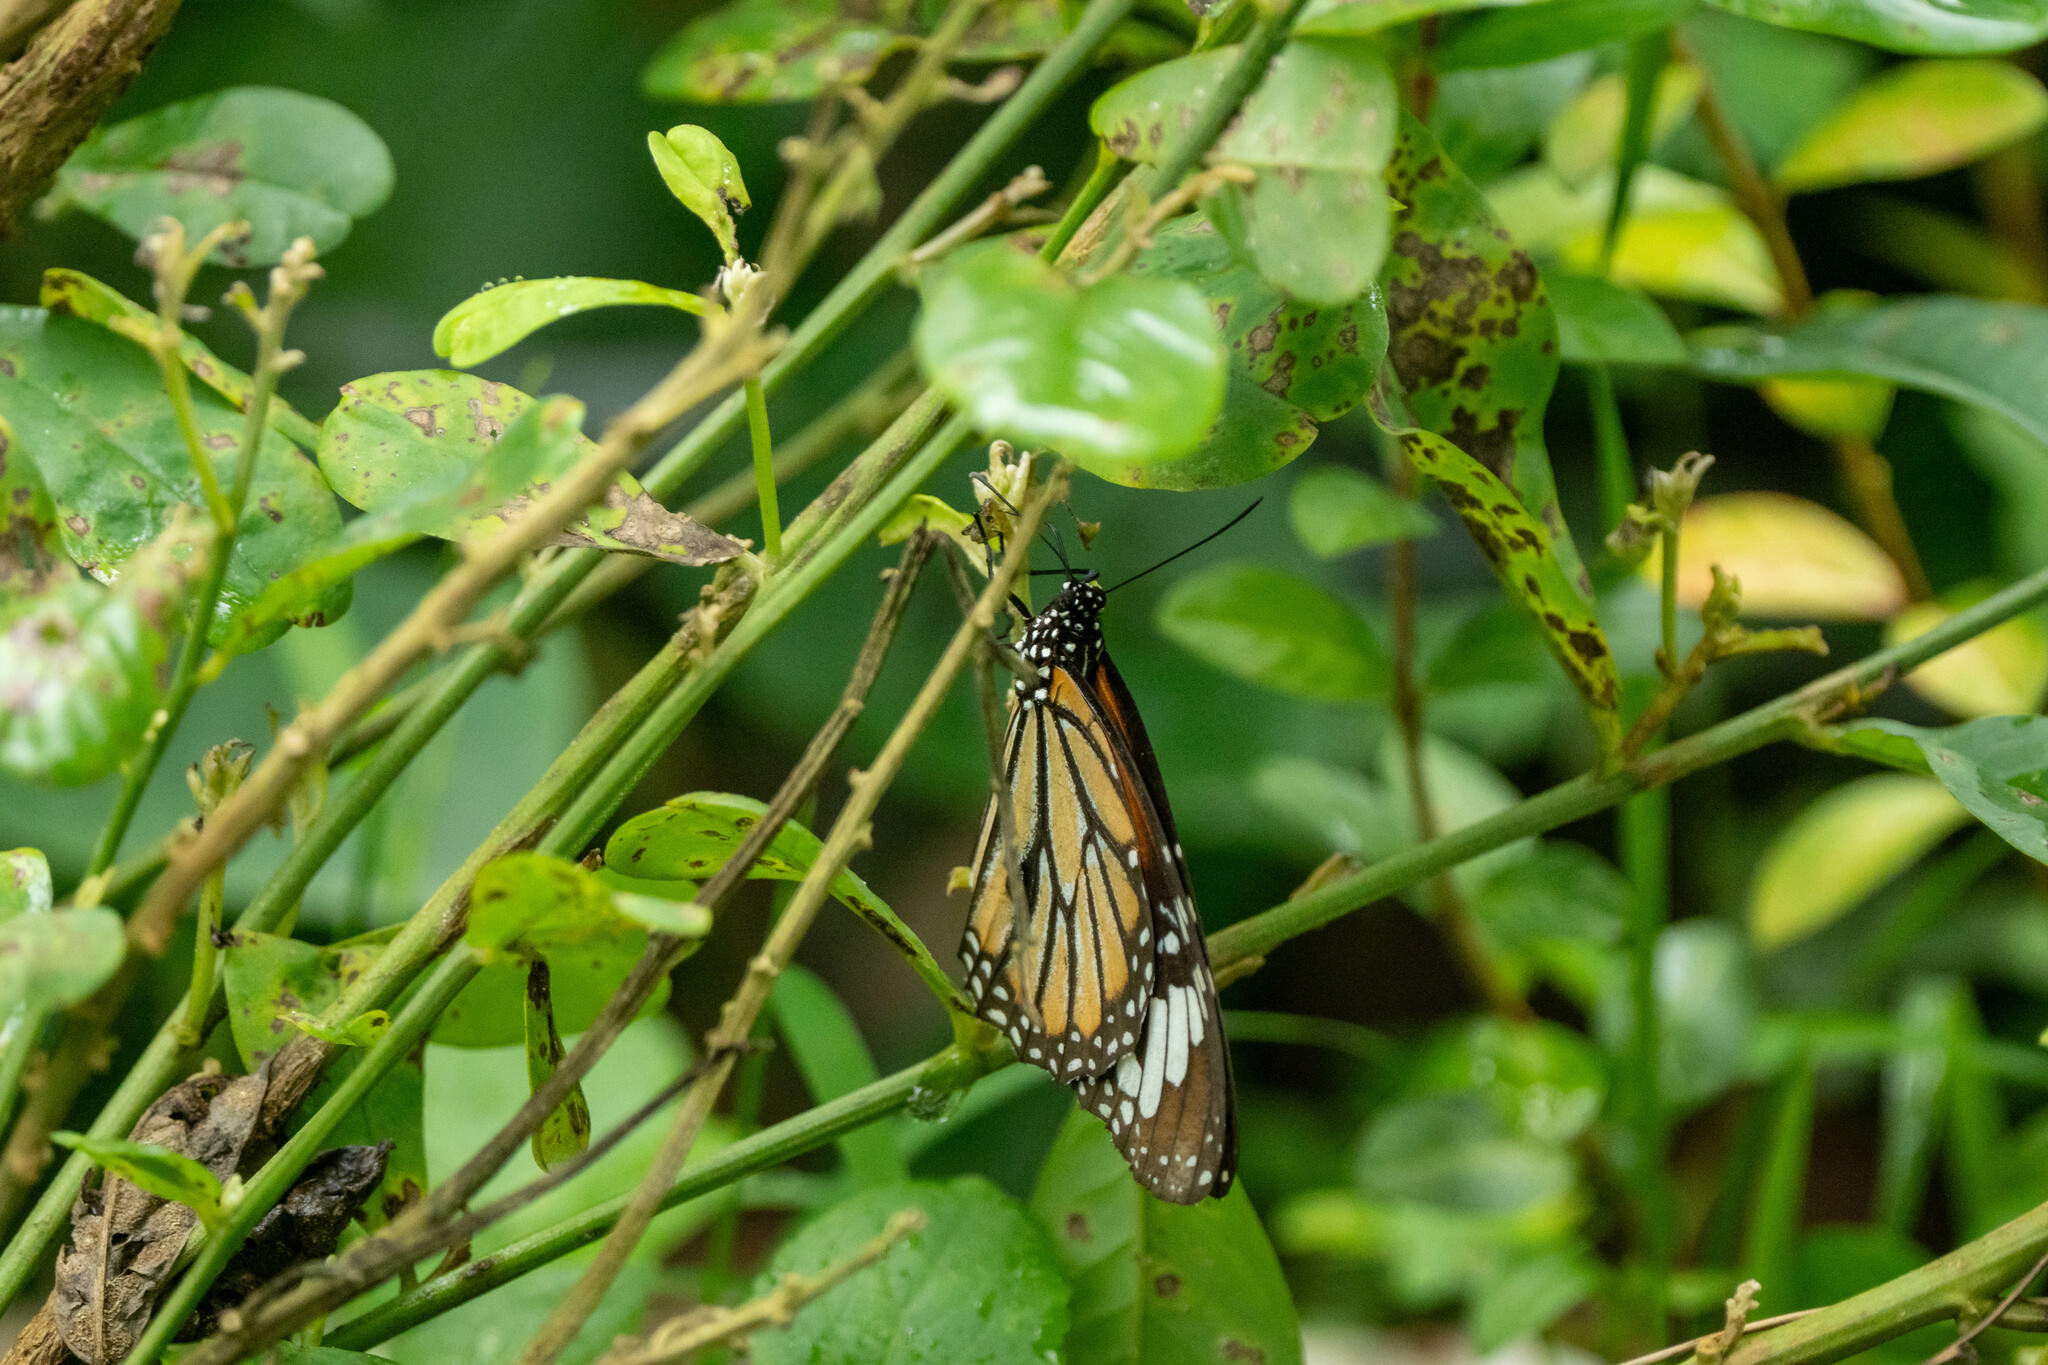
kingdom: Animalia
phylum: Arthropoda
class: Insecta
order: Lepidoptera
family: Nymphalidae
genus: Danaus
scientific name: Danaus genutia
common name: Common tiger butterfly
